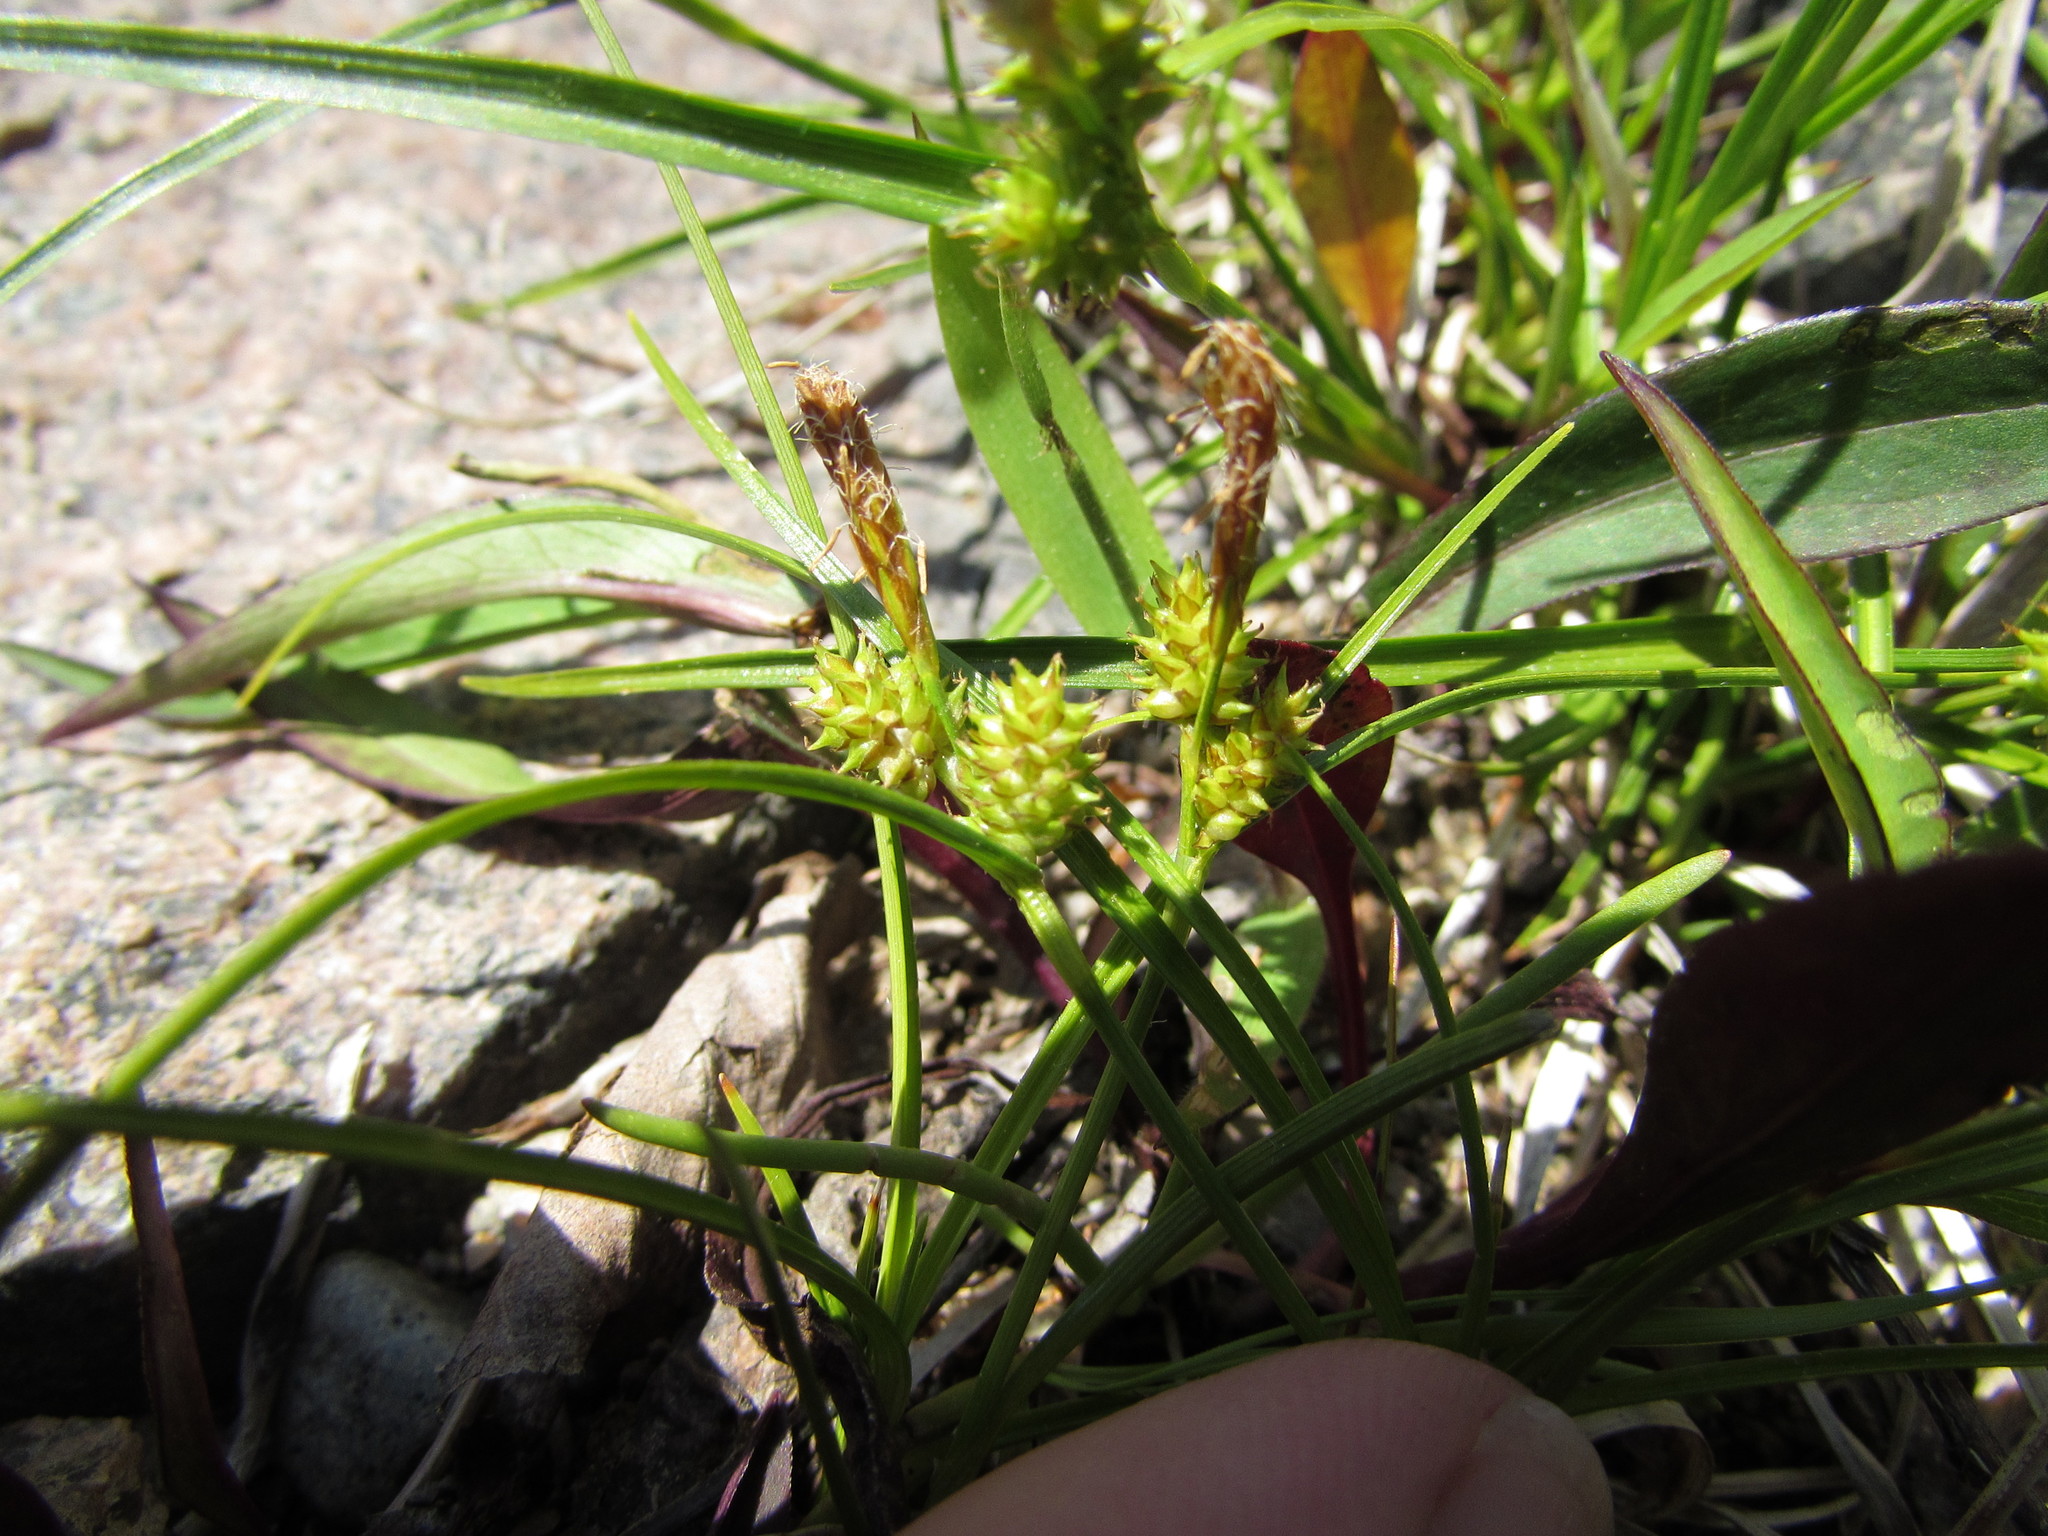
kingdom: Plantae
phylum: Tracheophyta
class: Liliopsida
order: Poales
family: Cyperaceae
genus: Carex
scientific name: Carex
